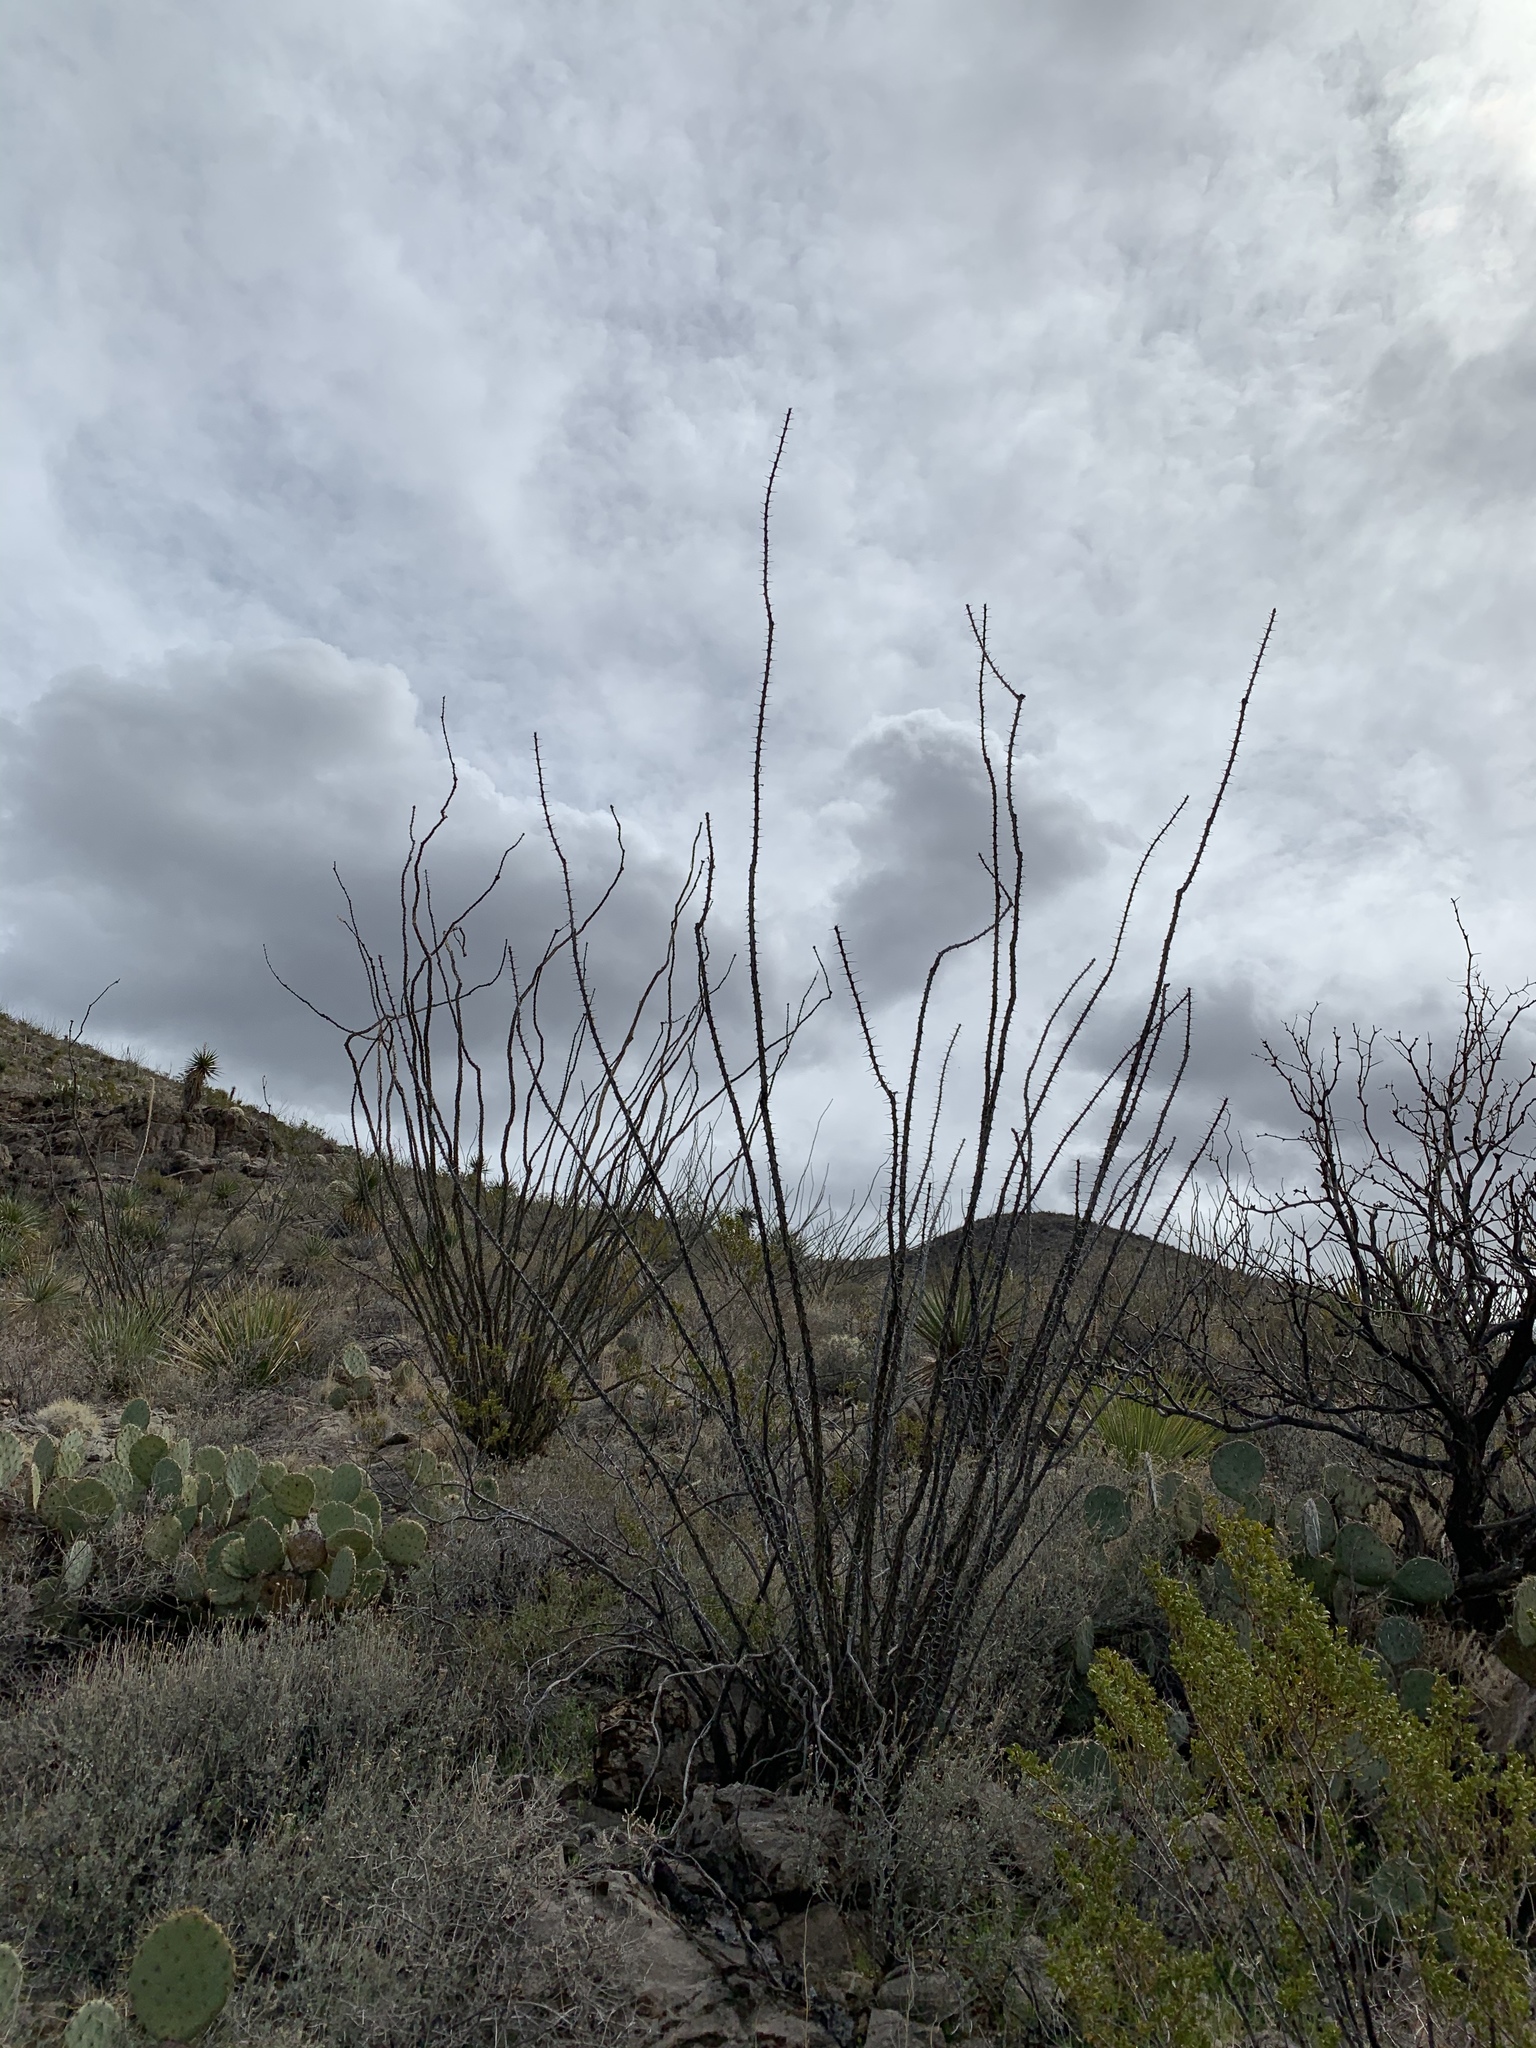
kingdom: Plantae
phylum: Tracheophyta
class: Magnoliopsida
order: Ericales
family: Fouquieriaceae
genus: Fouquieria
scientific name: Fouquieria splendens
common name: Vine-cactus
